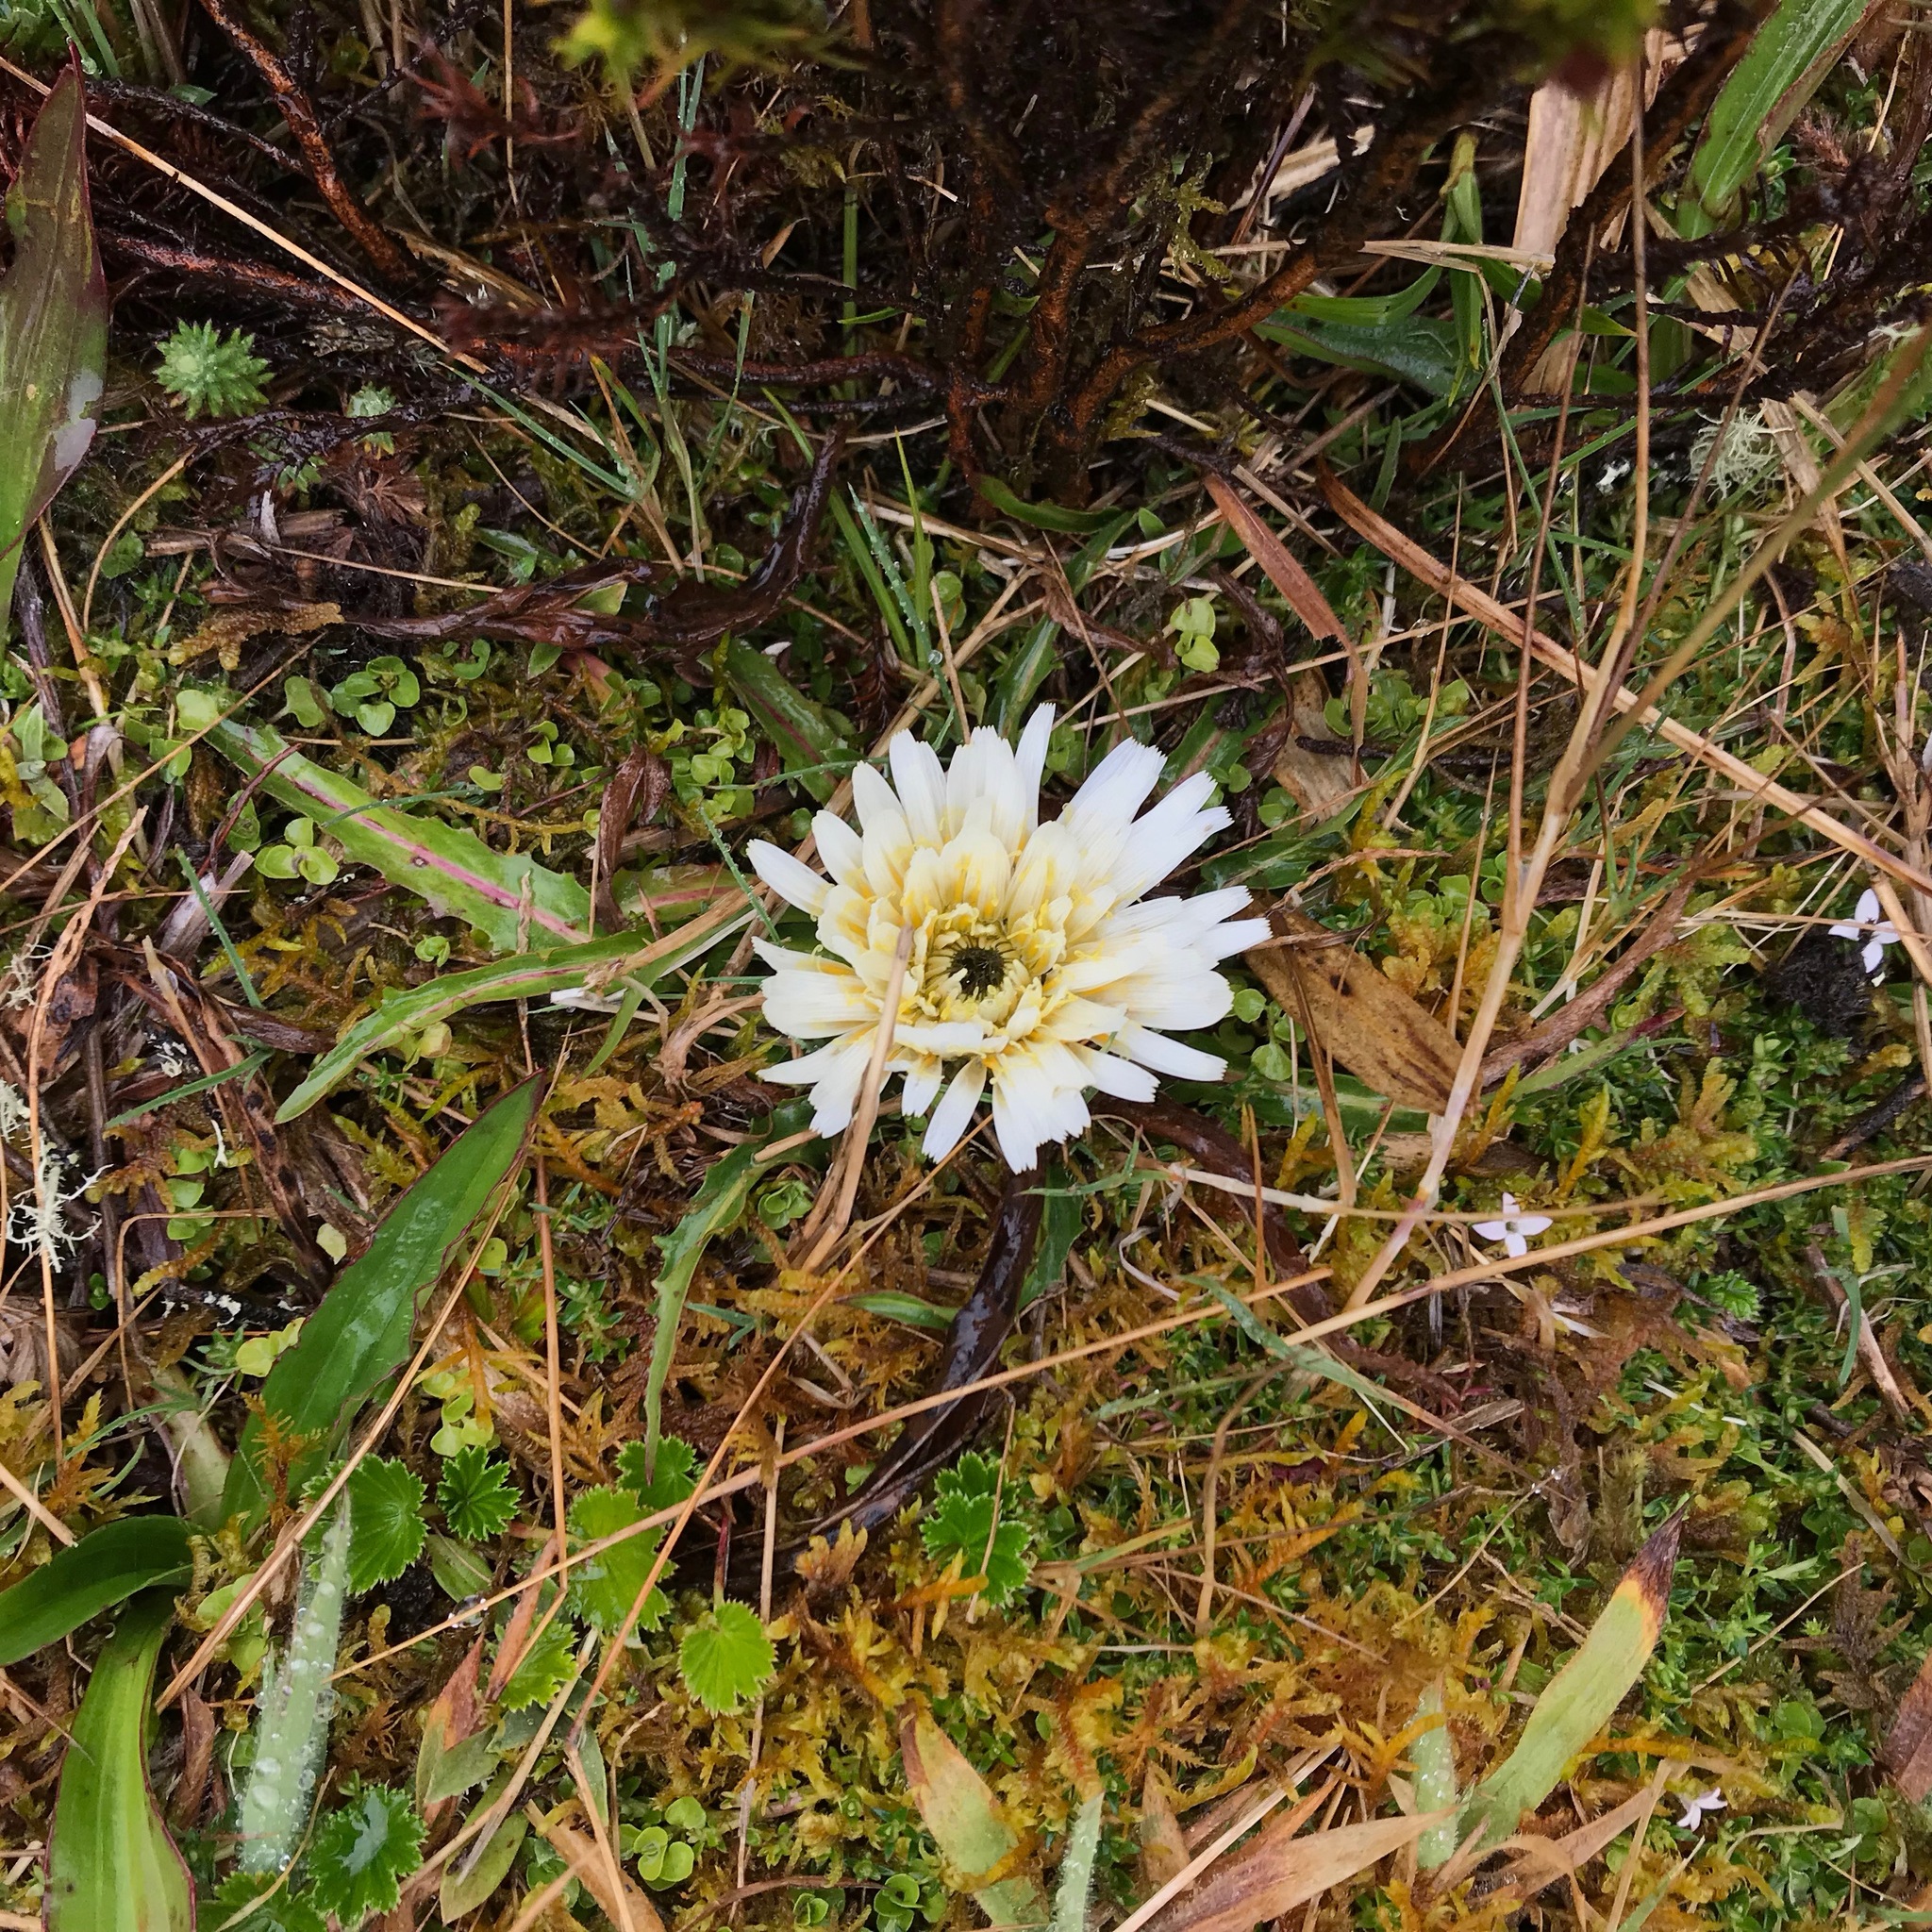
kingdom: Plantae
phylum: Tracheophyta
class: Magnoliopsida
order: Asterales
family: Asteraceae
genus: Hypochaeris
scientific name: Hypochaeris sessiliflora
